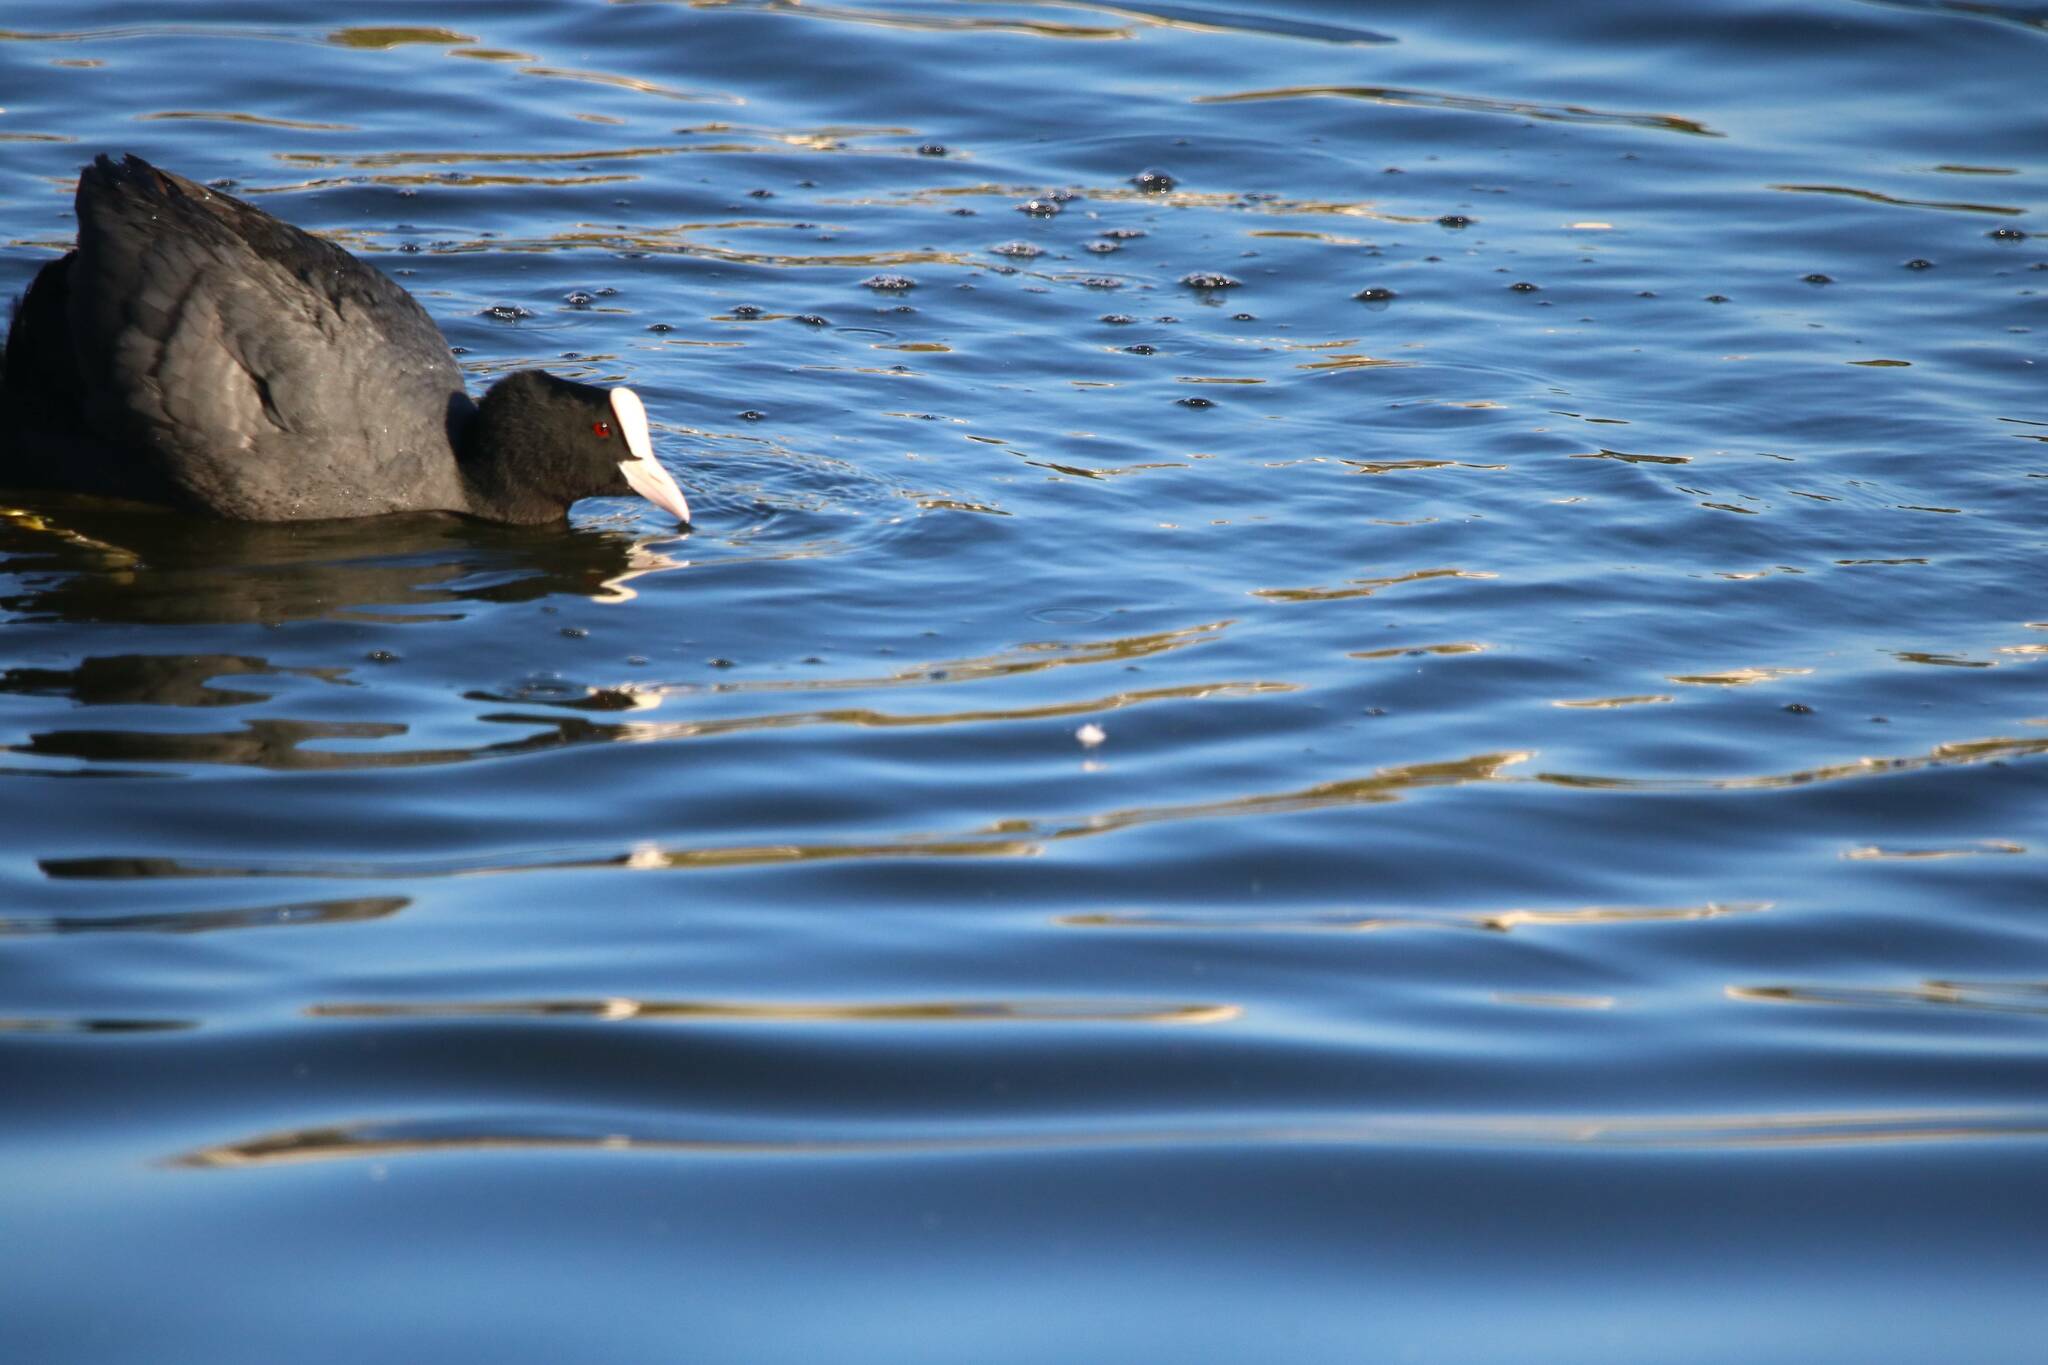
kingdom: Animalia
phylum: Chordata
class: Aves
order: Gruiformes
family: Rallidae
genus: Fulica
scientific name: Fulica atra
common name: Eurasian coot
